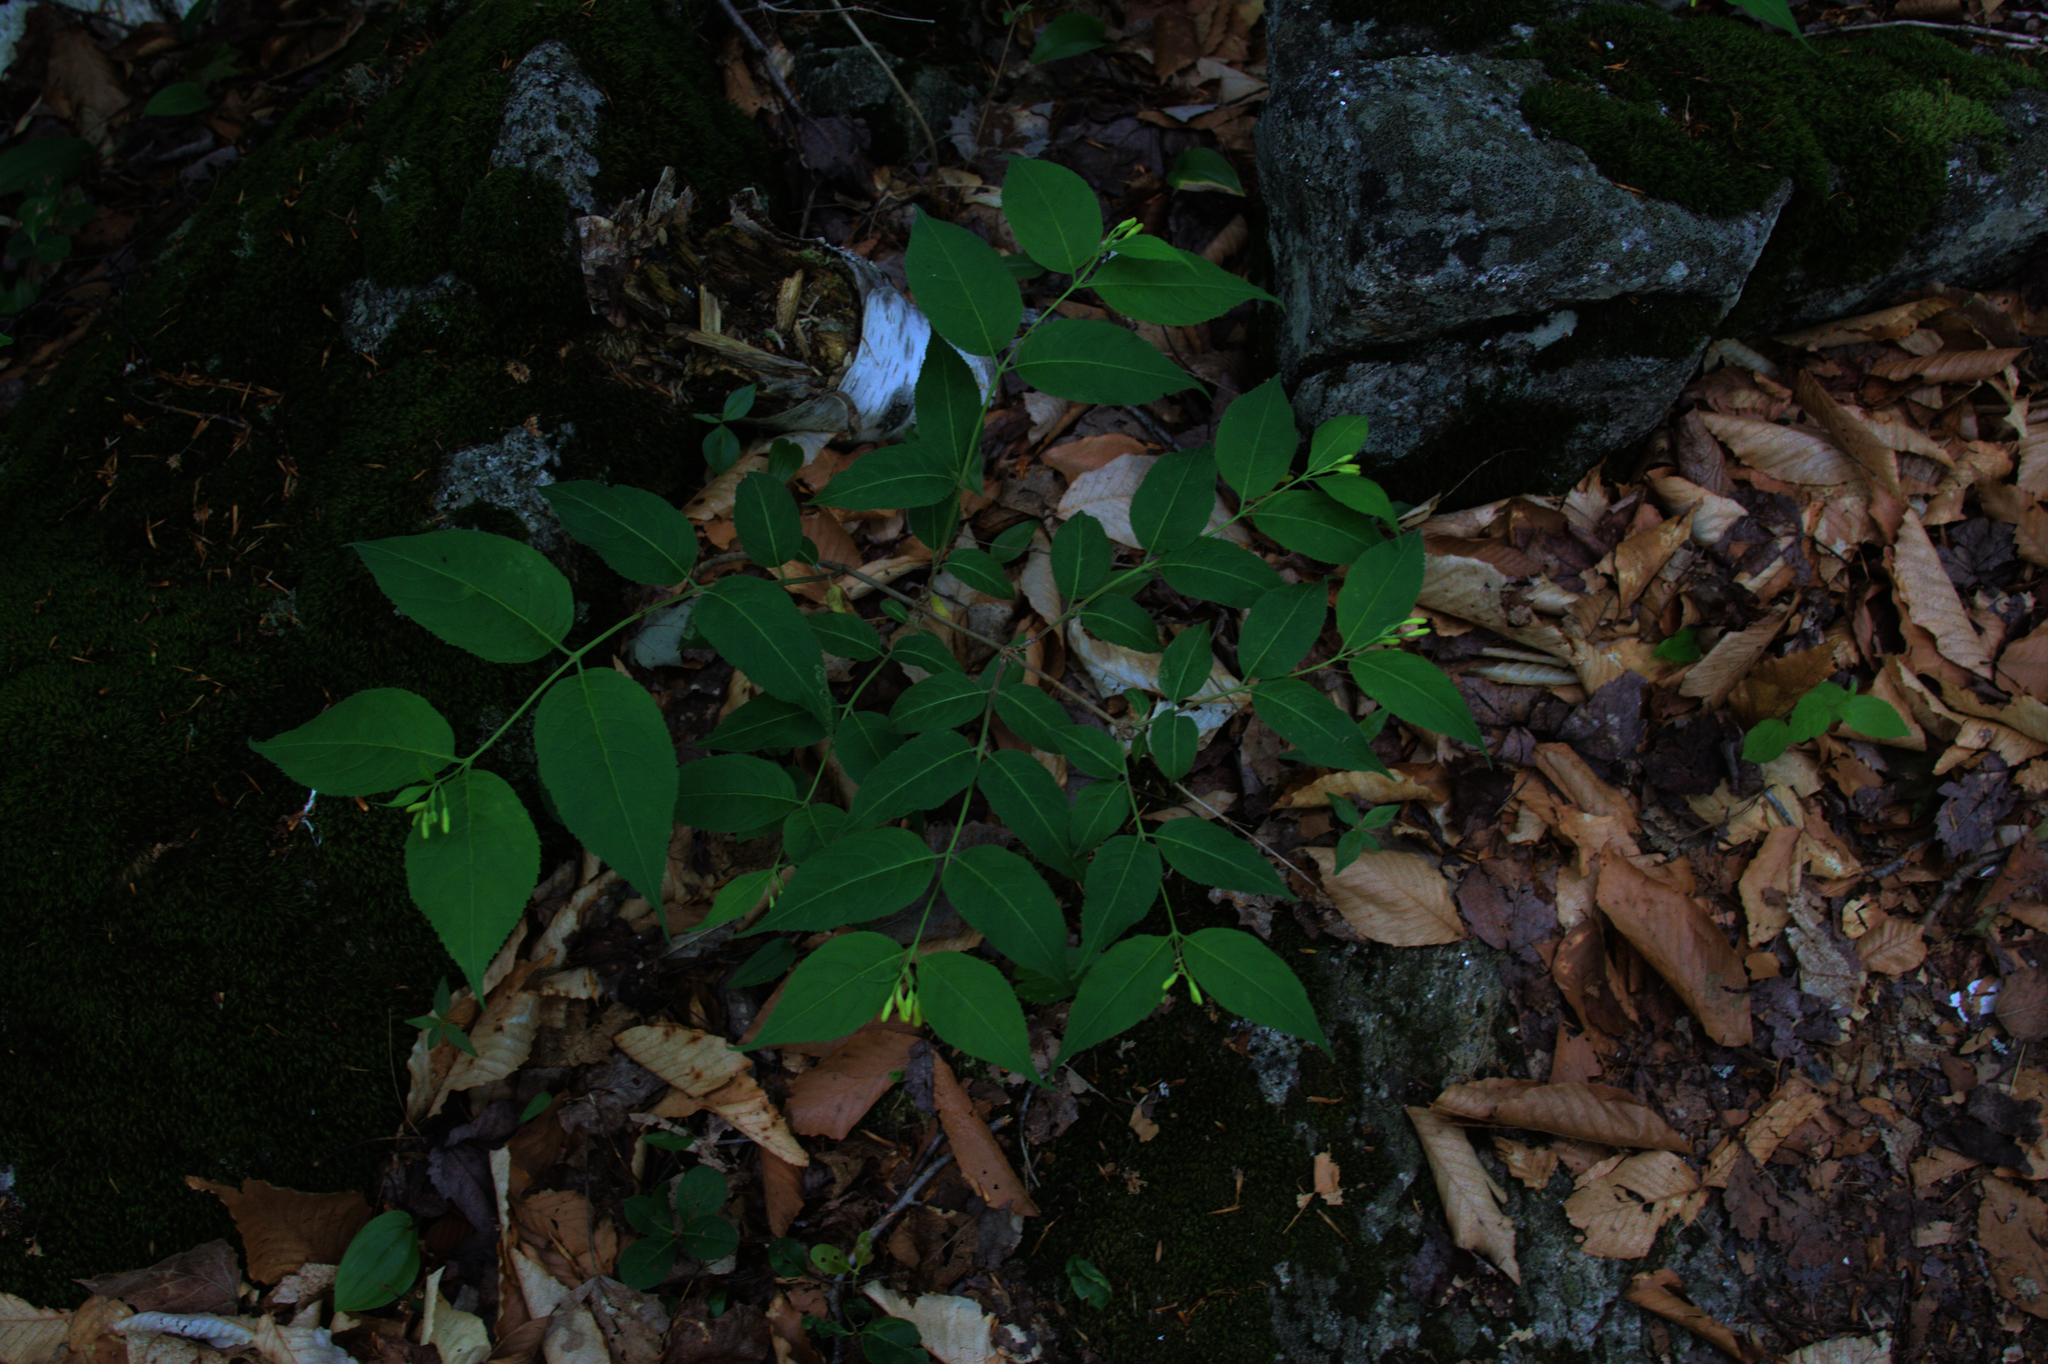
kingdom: Plantae
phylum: Tracheophyta
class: Magnoliopsida
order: Dipsacales
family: Caprifoliaceae
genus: Diervilla
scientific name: Diervilla lonicera
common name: Bush-honeysuckle
